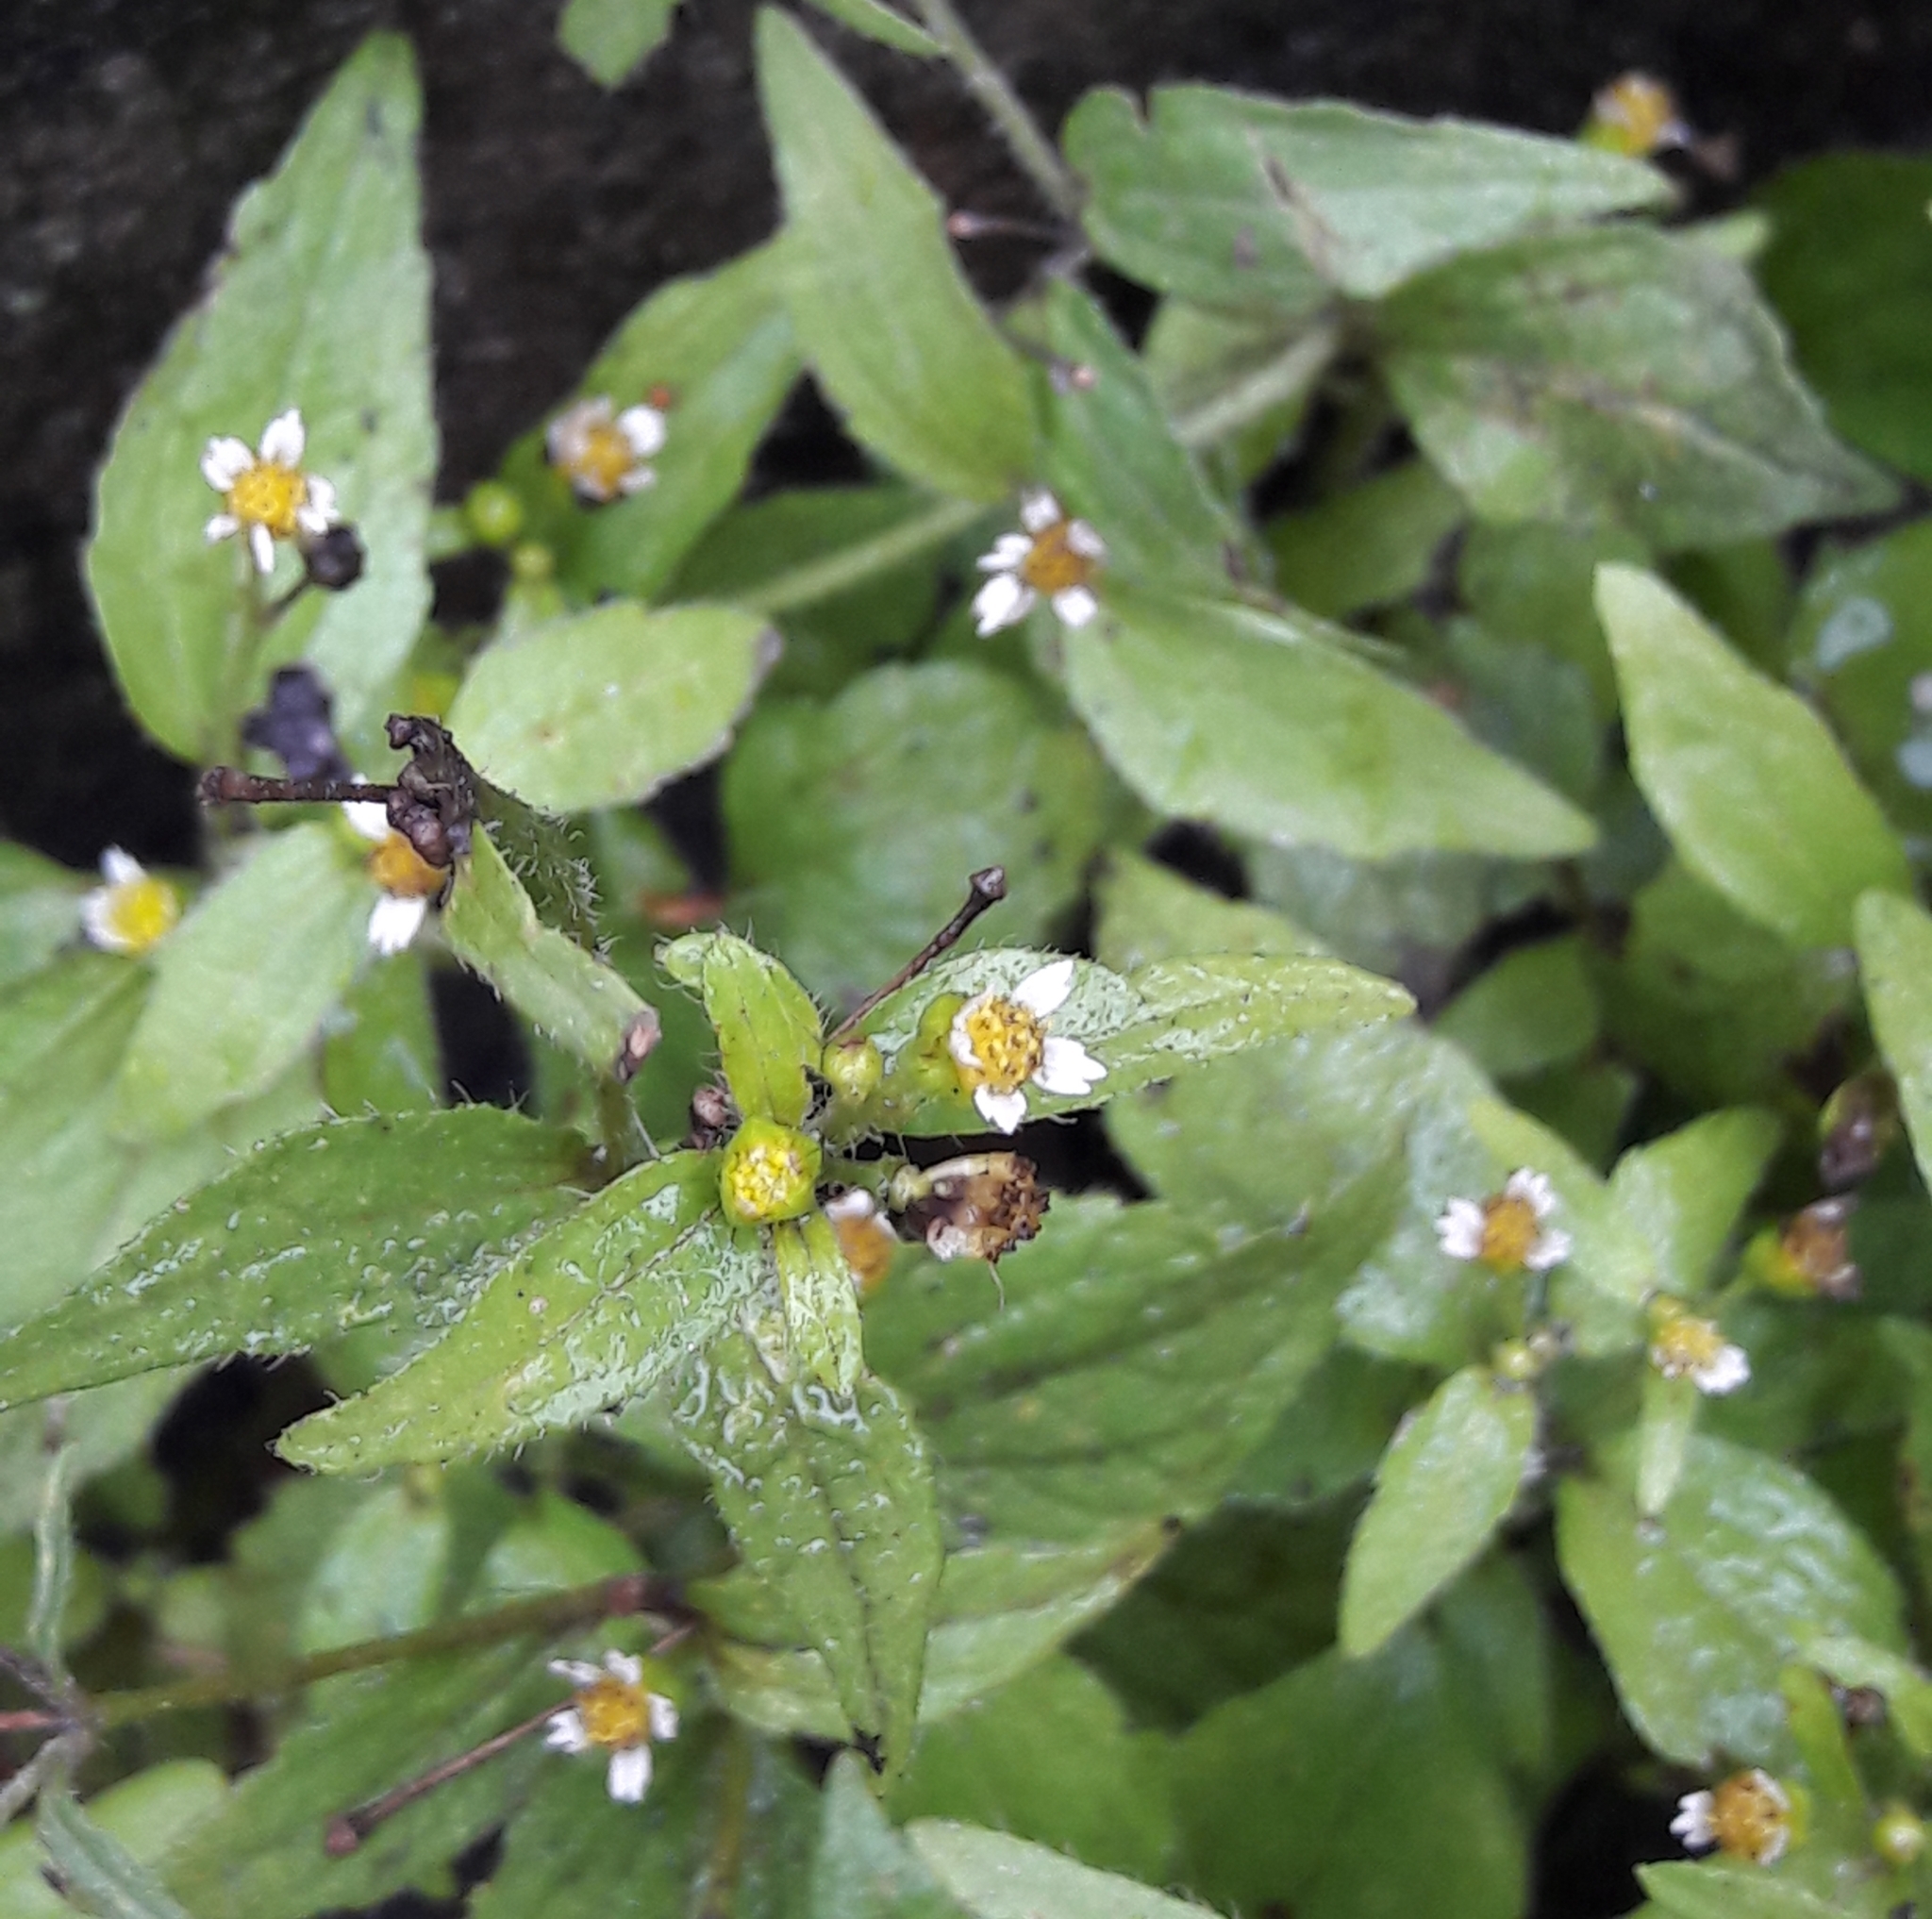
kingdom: Plantae
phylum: Tracheophyta
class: Magnoliopsida
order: Asterales
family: Asteraceae
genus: Galinsoga
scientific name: Galinsoga quadriradiata
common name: Shaggy soldier
